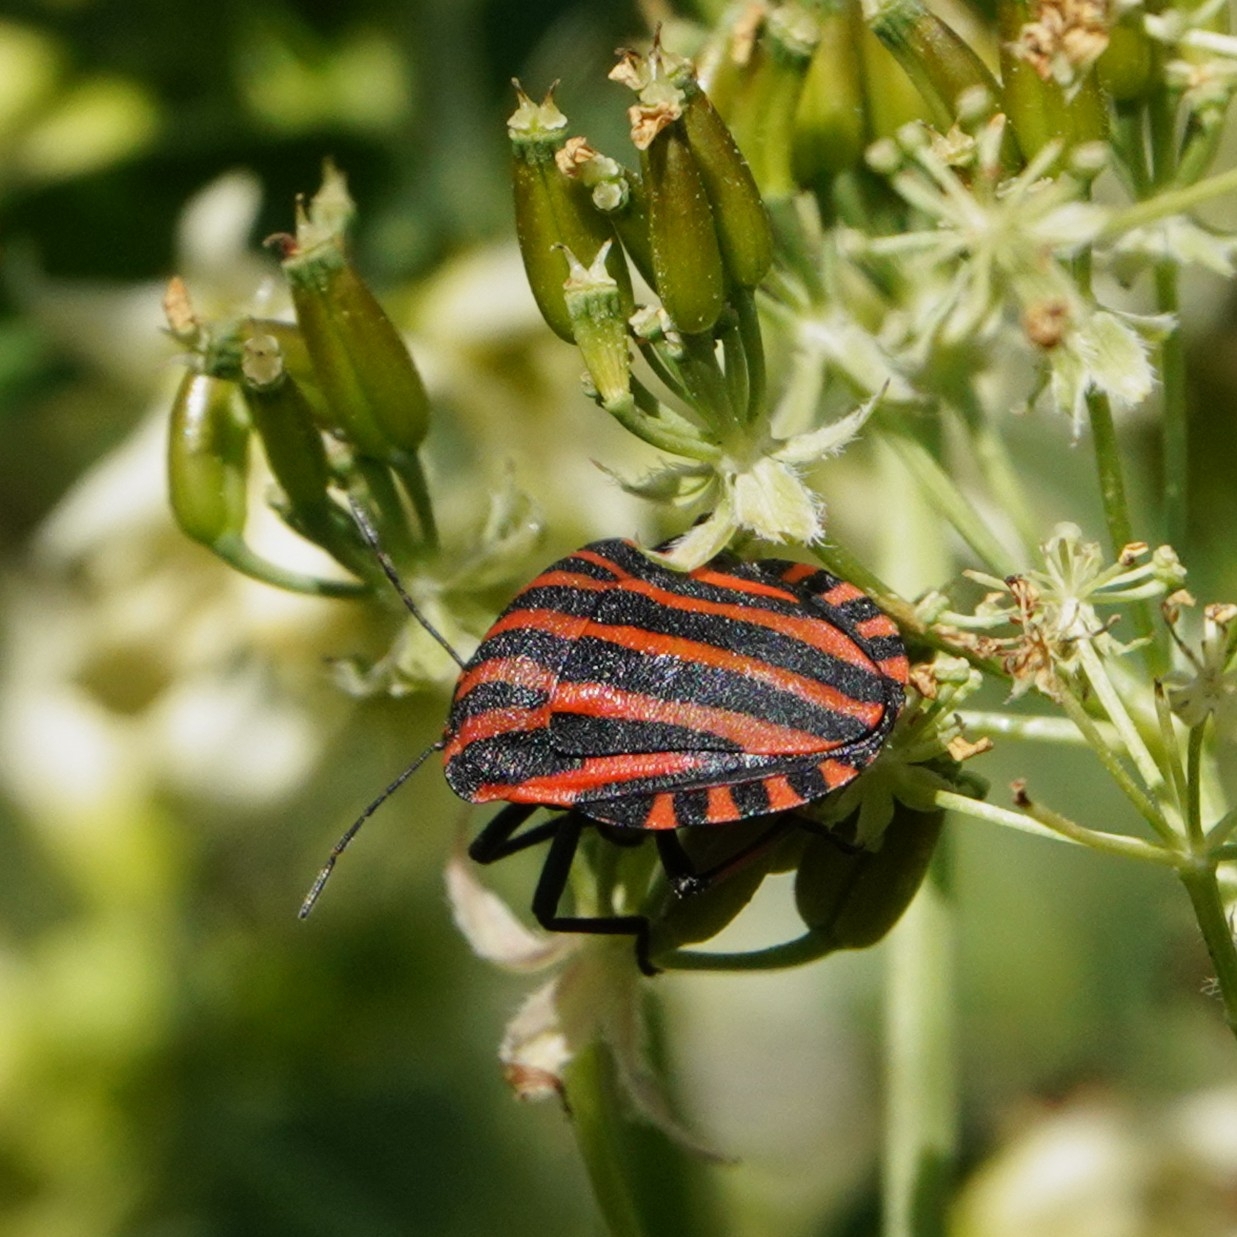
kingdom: Animalia
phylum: Arthropoda
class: Insecta
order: Hemiptera
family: Pentatomidae
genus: Graphosoma
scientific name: Graphosoma italicum
